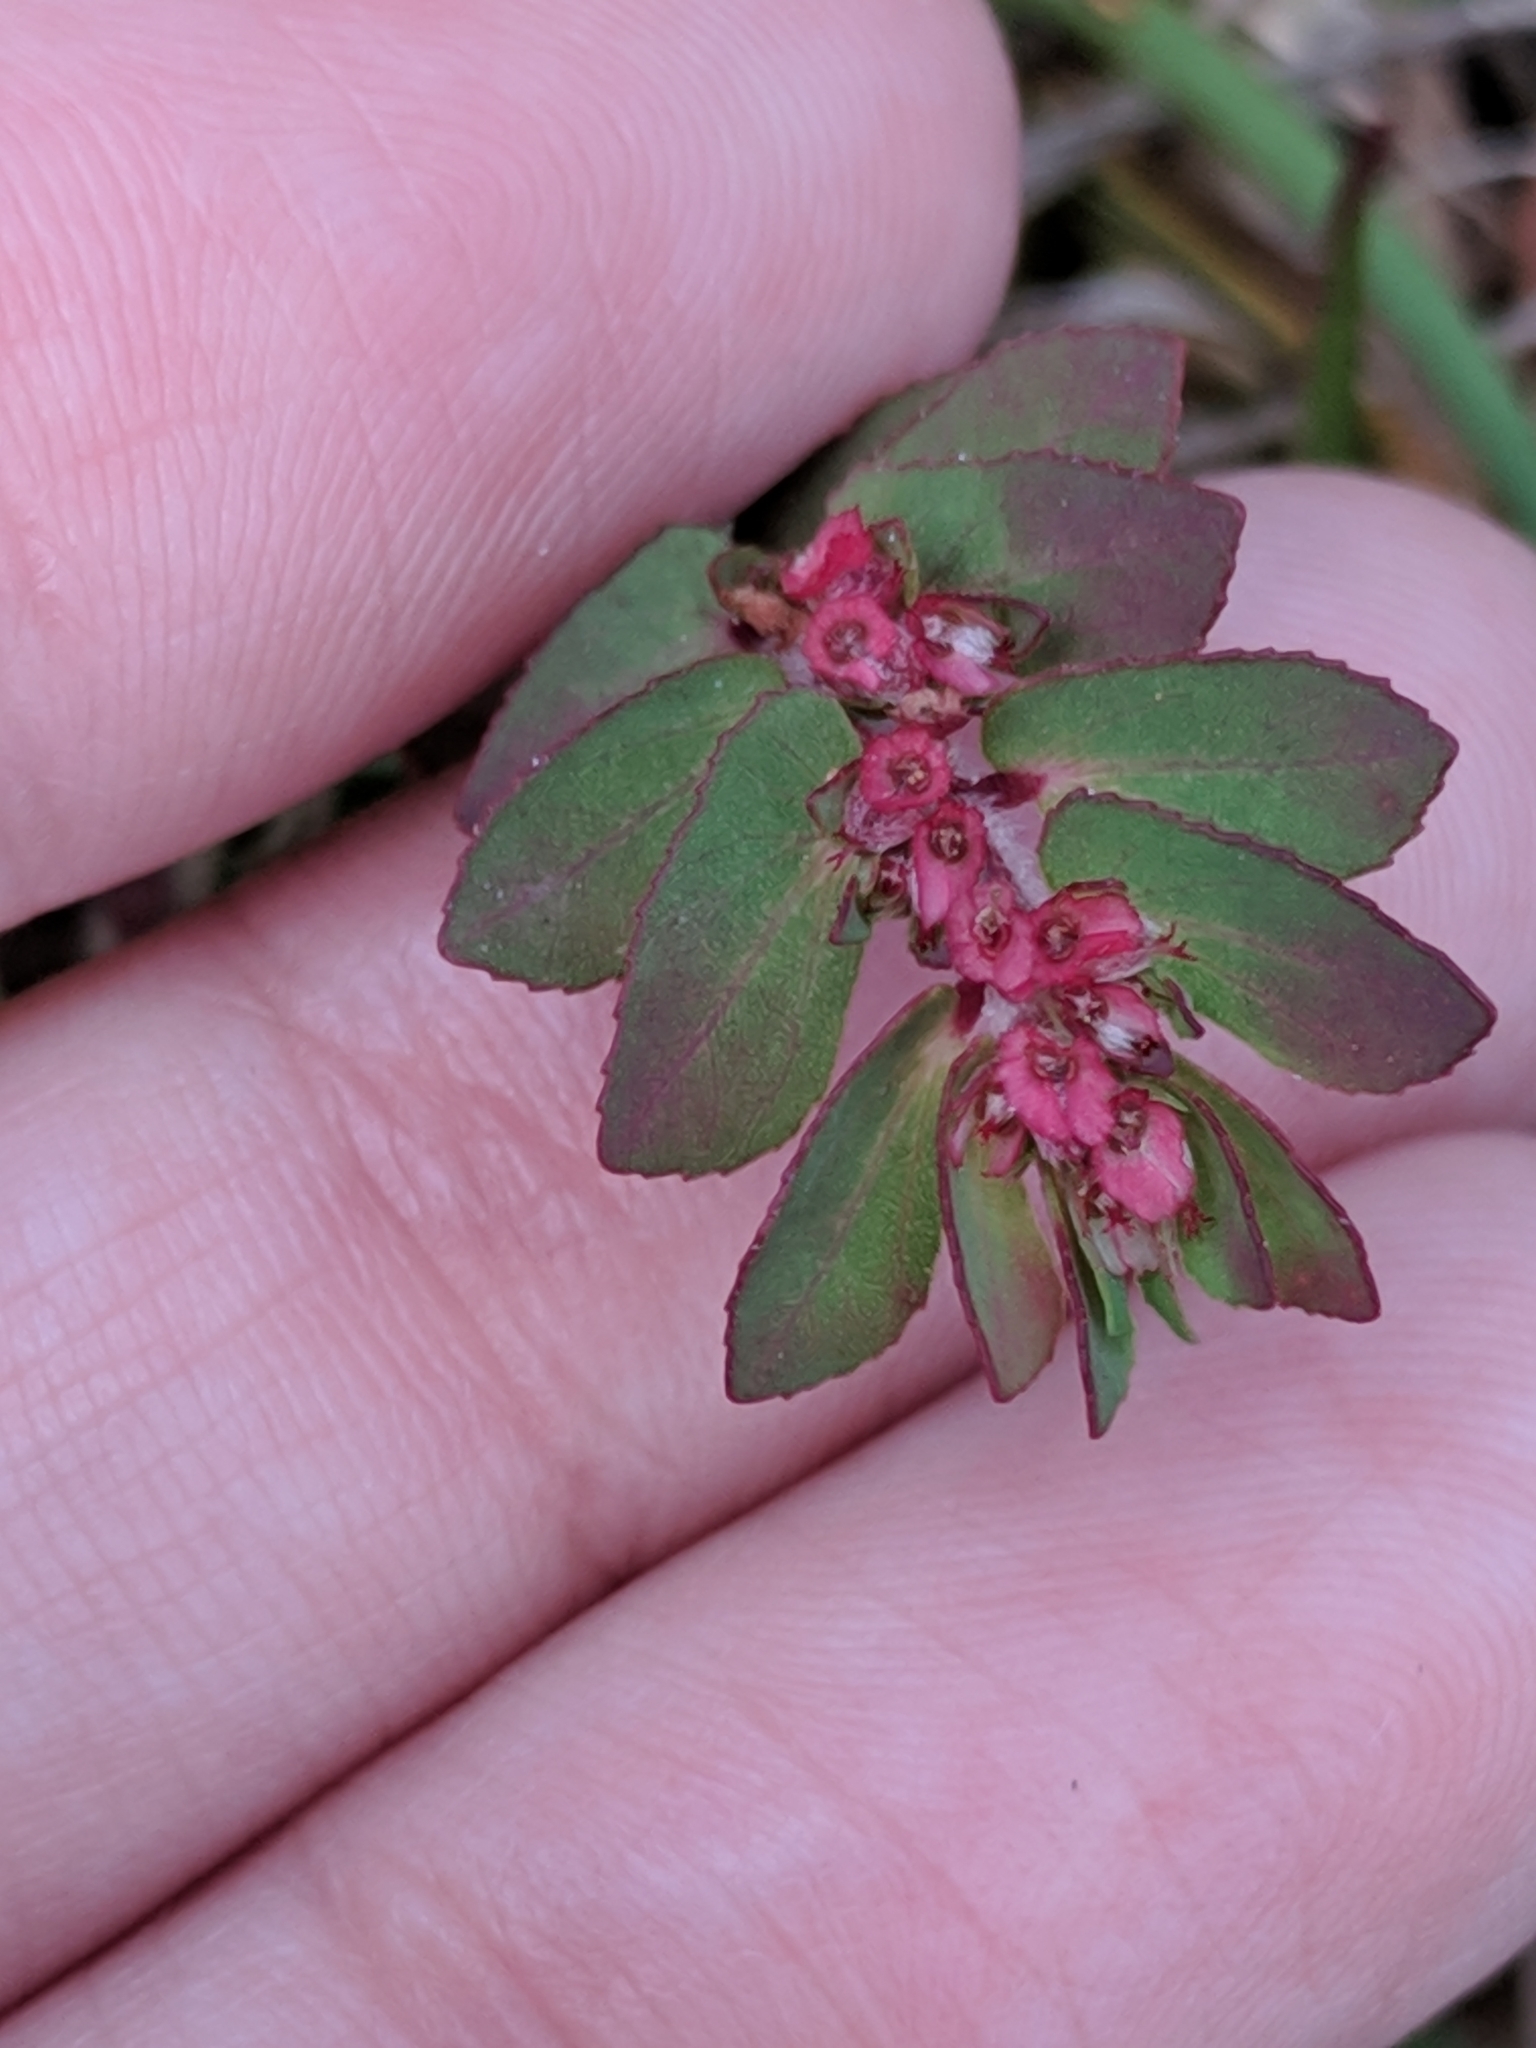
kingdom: Plantae
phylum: Tracheophyta
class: Magnoliopsida
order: Malpighiales
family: Euphorbiaceae
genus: Euphorbia
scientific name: Euphorbia conferta
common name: Everglade key sandmat
